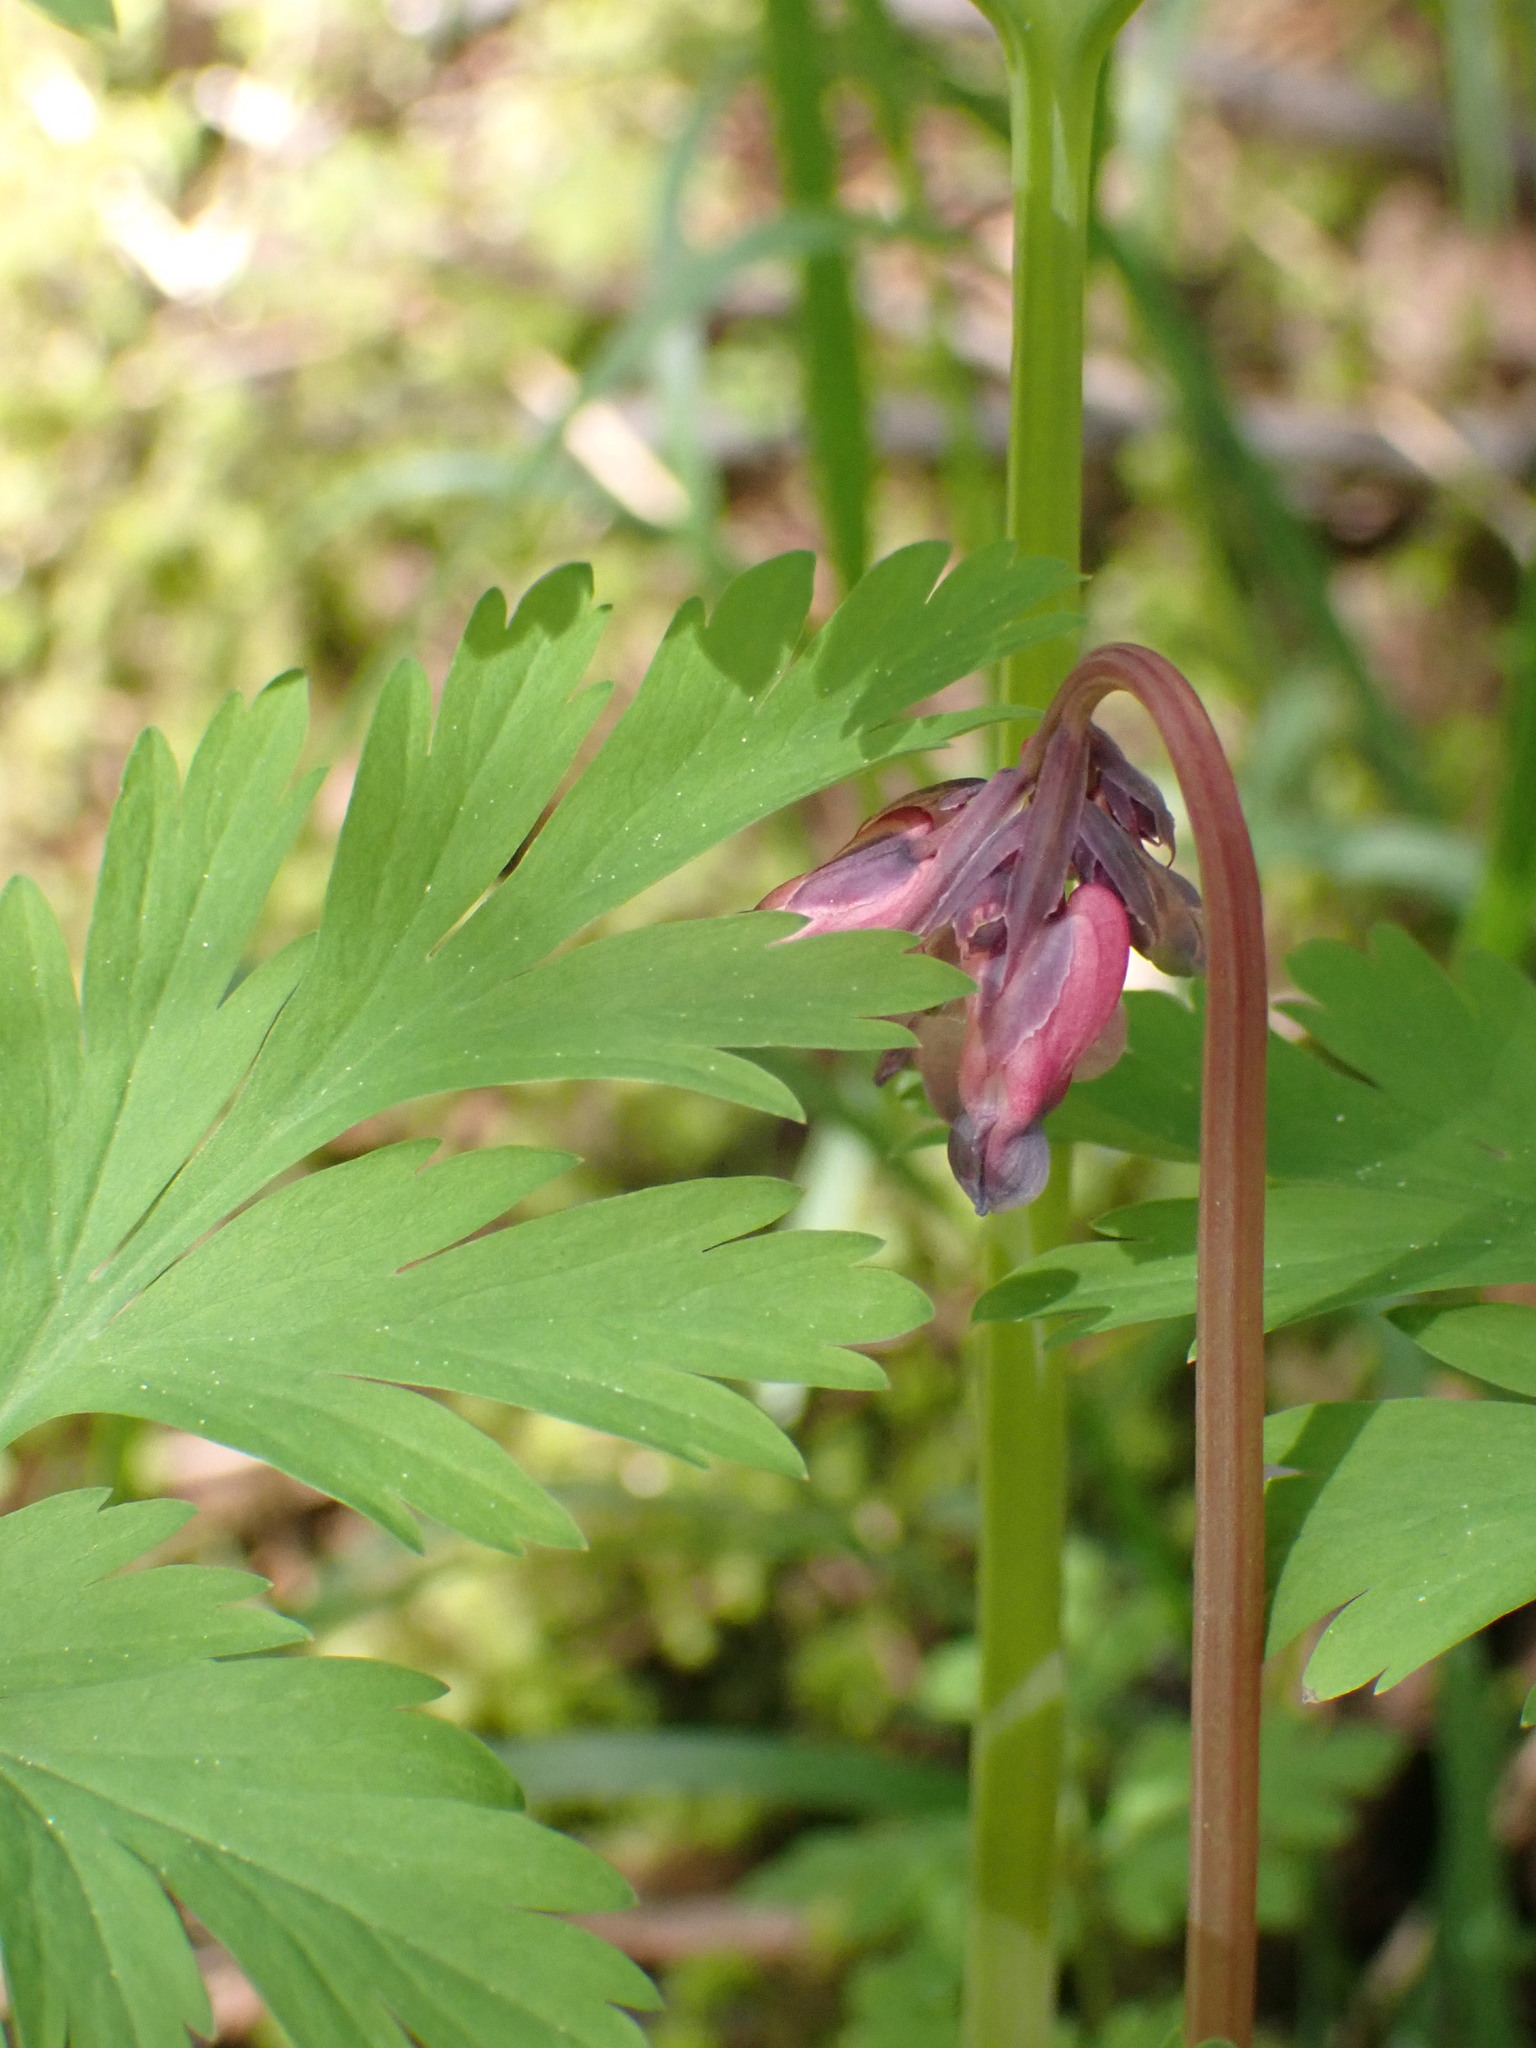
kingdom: Plantae
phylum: Tracheophyta
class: Magnoliopsida
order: Ranunculales
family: Papaveraceae
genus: Dicentra
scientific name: Dicentra formosa
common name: Bleeding-heart
